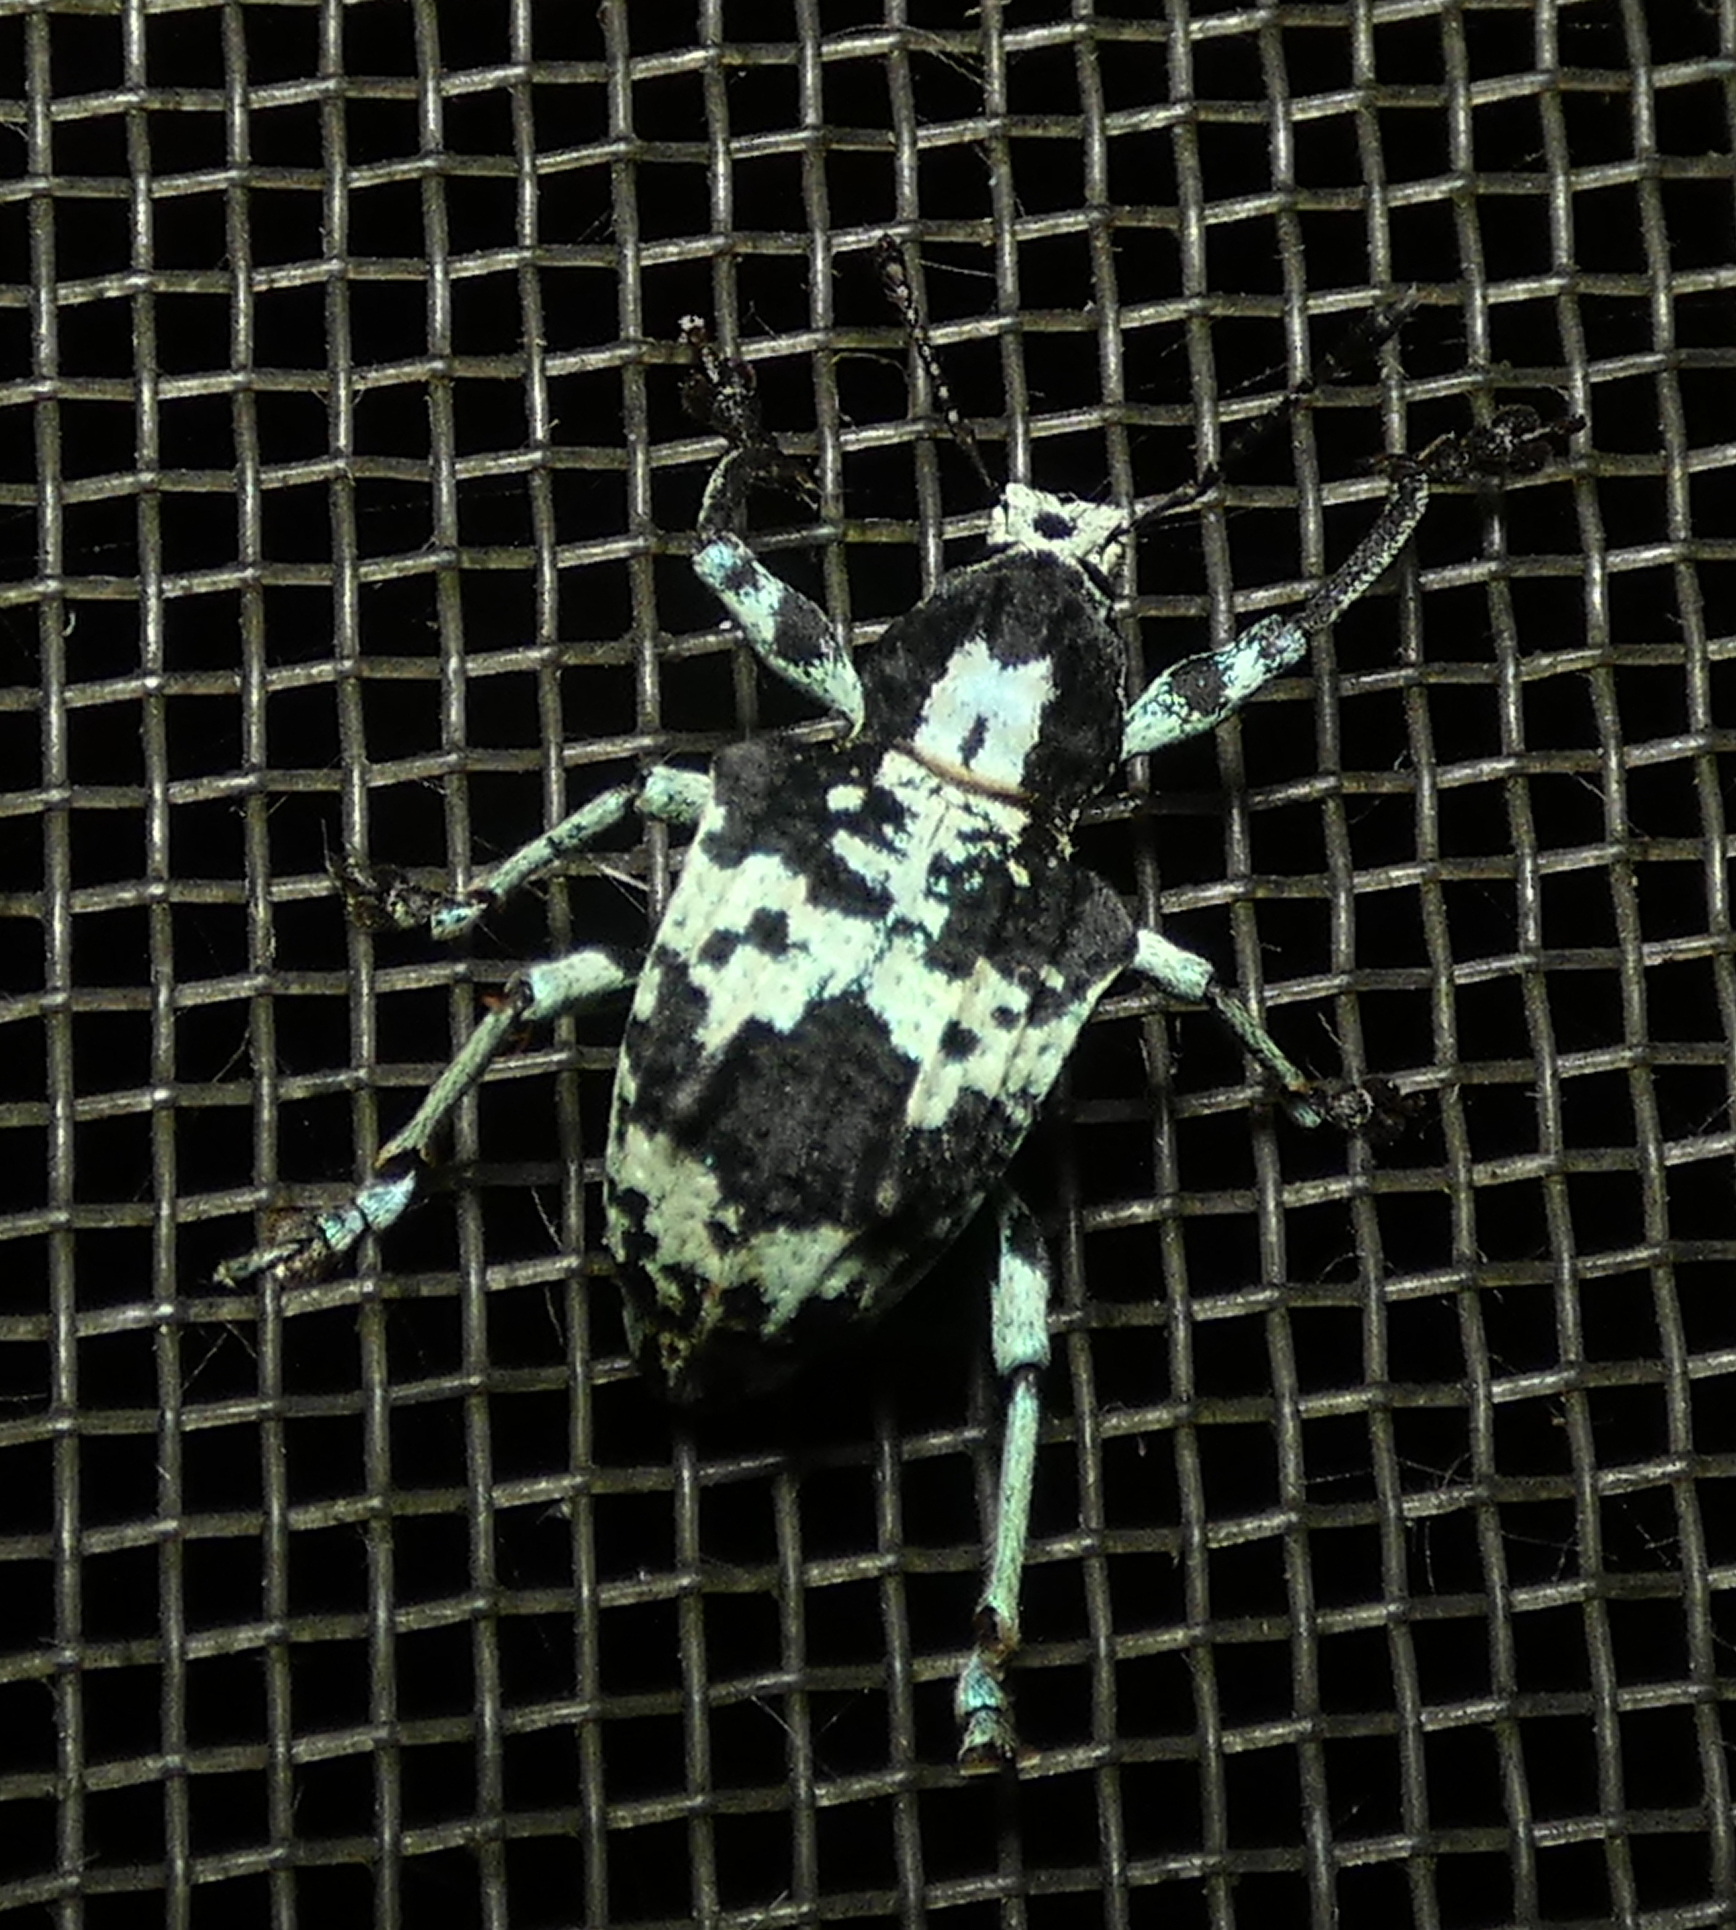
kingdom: Animalia
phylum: Arthropoda
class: Insecta
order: Coleoptera
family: Curculionidae
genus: Rhigus
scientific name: Rhigus dejeanii
